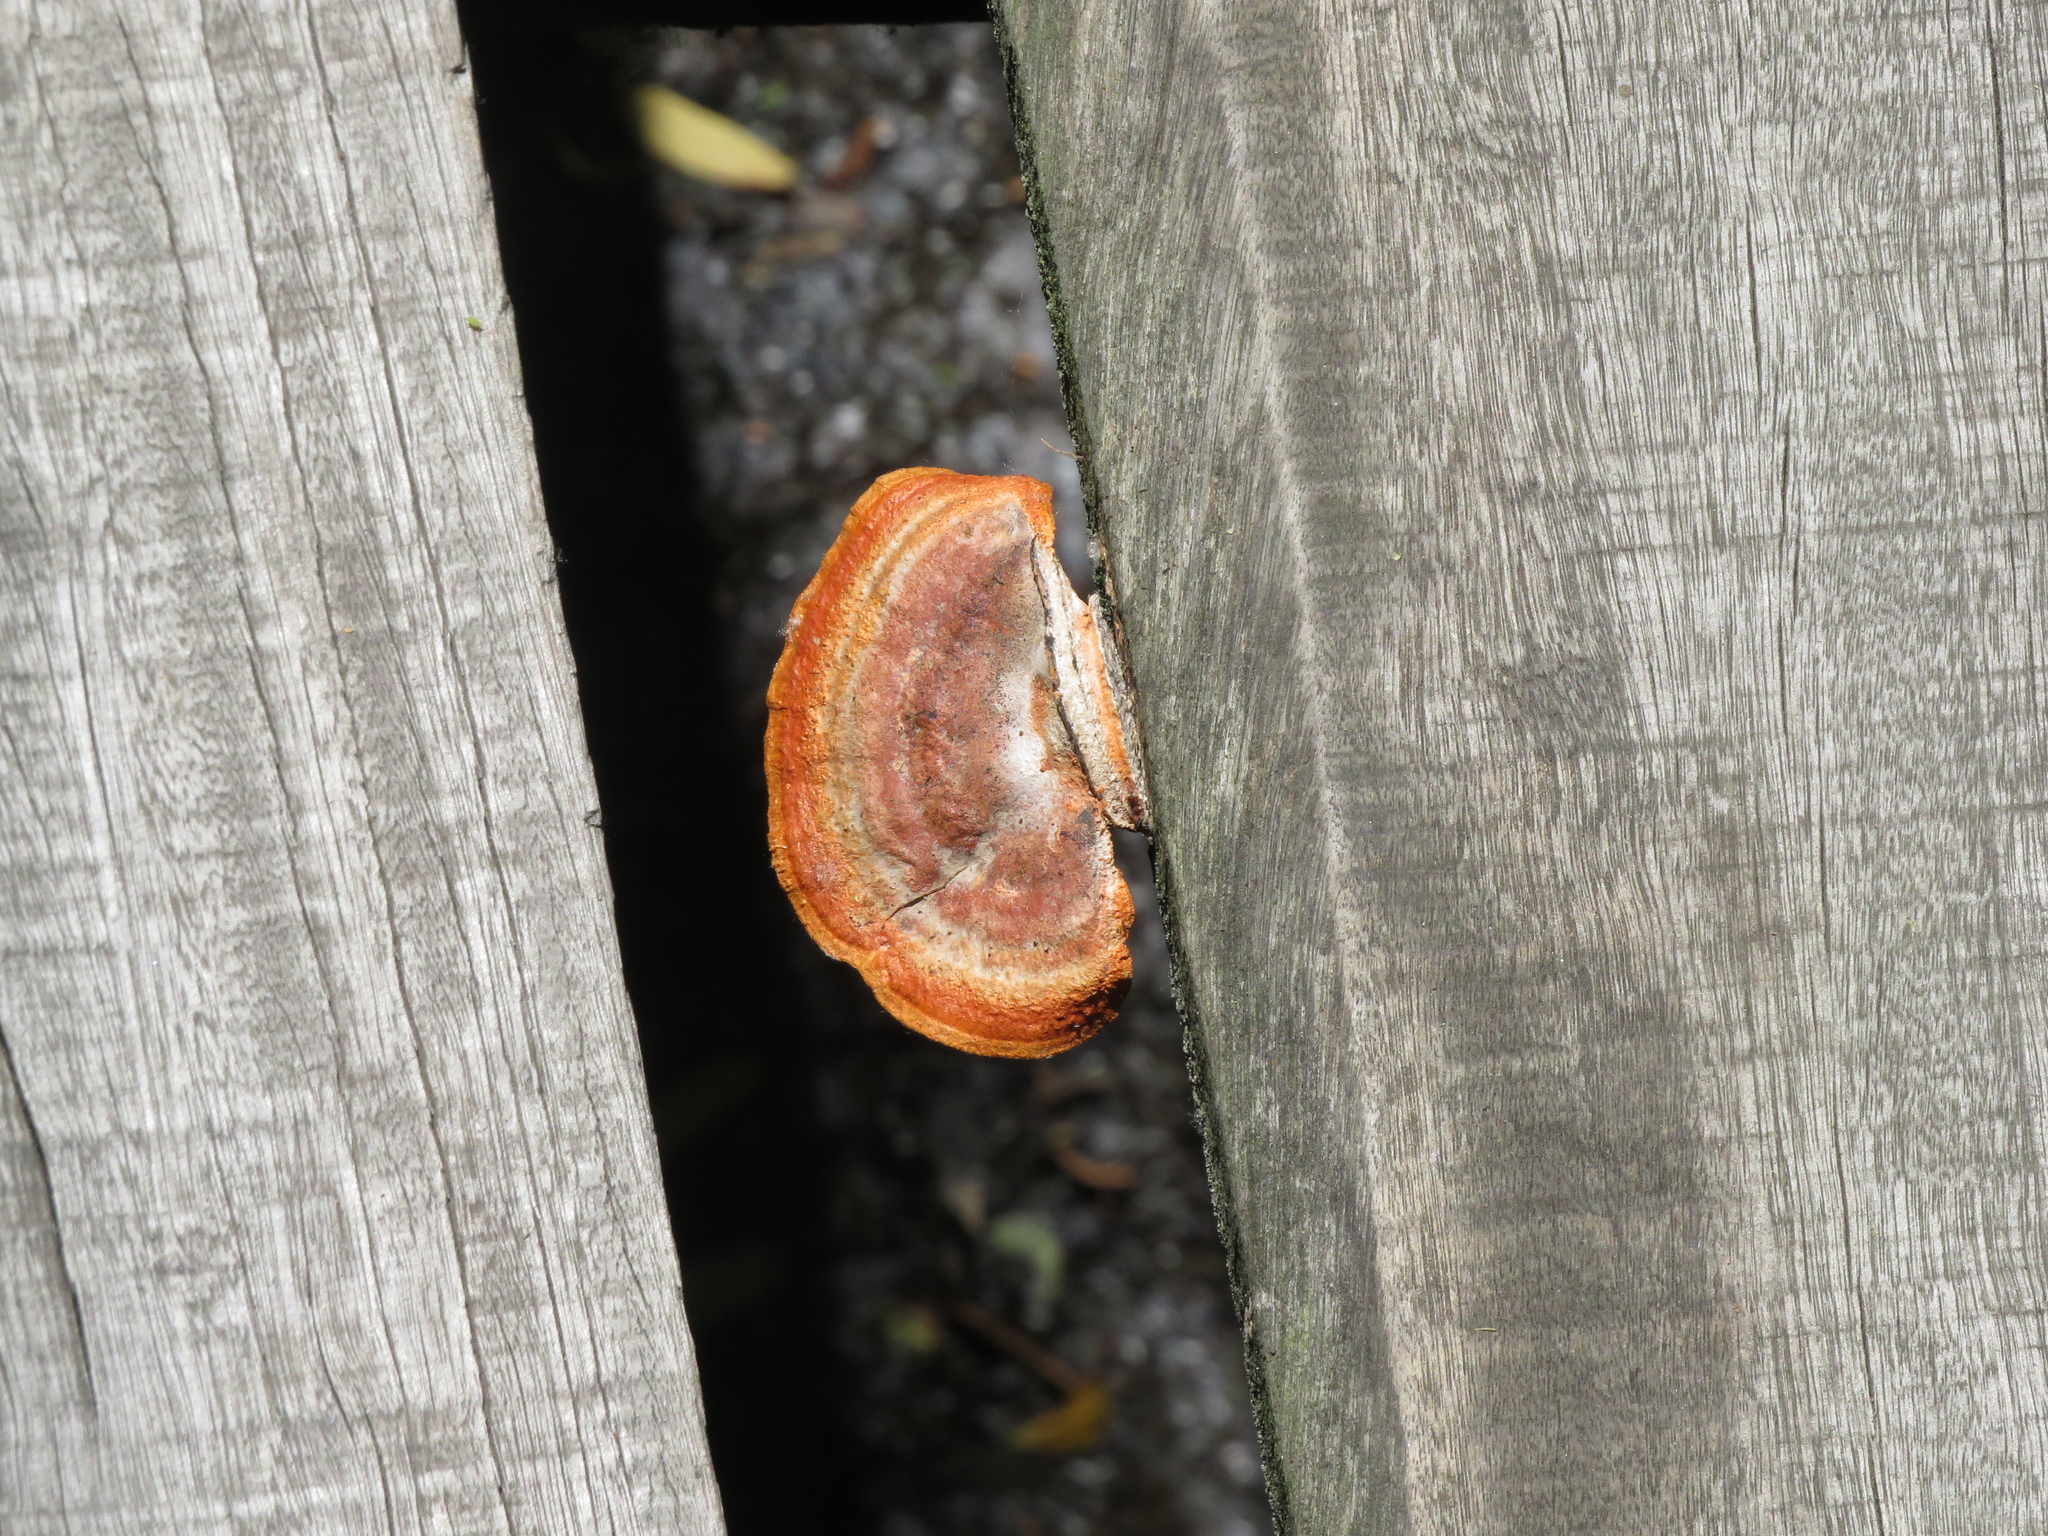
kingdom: Fungi
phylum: Basidiomycota
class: Agaricomycetes
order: Polyporales
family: Polyporaceae
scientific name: Polyporaceae
